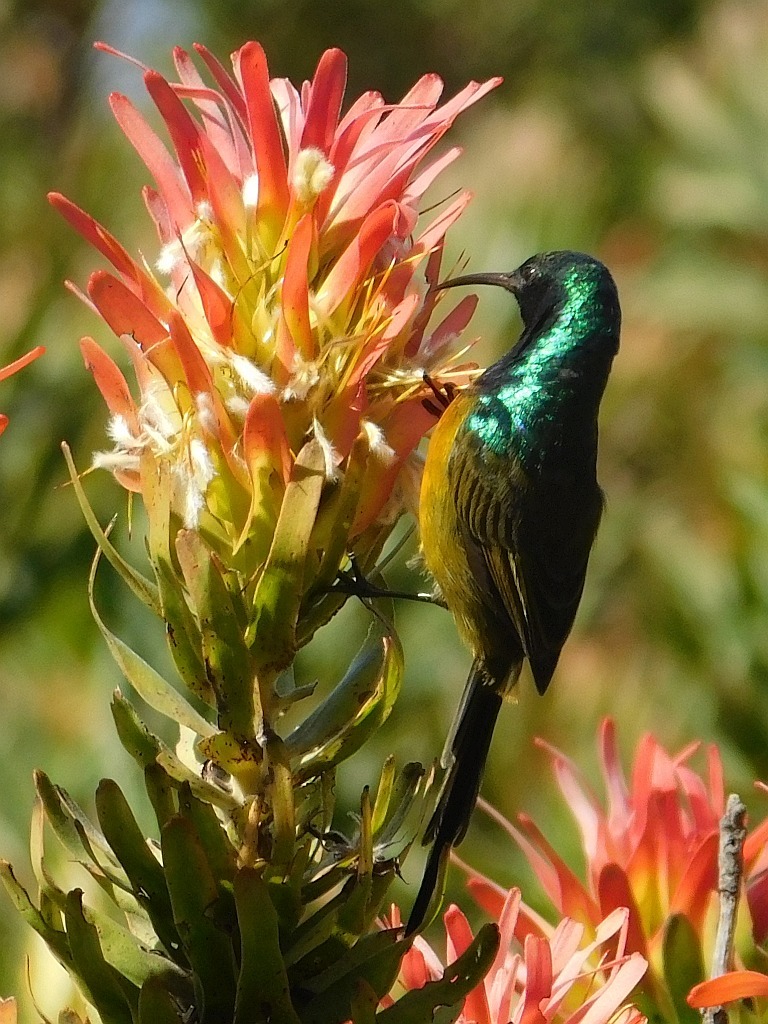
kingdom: Animalia
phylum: Chordata
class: Aves
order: Passeriformes
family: Nectariniidae
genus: Anthobaphes
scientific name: Anthobaphes violacea
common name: Orange-breasted sunbird
